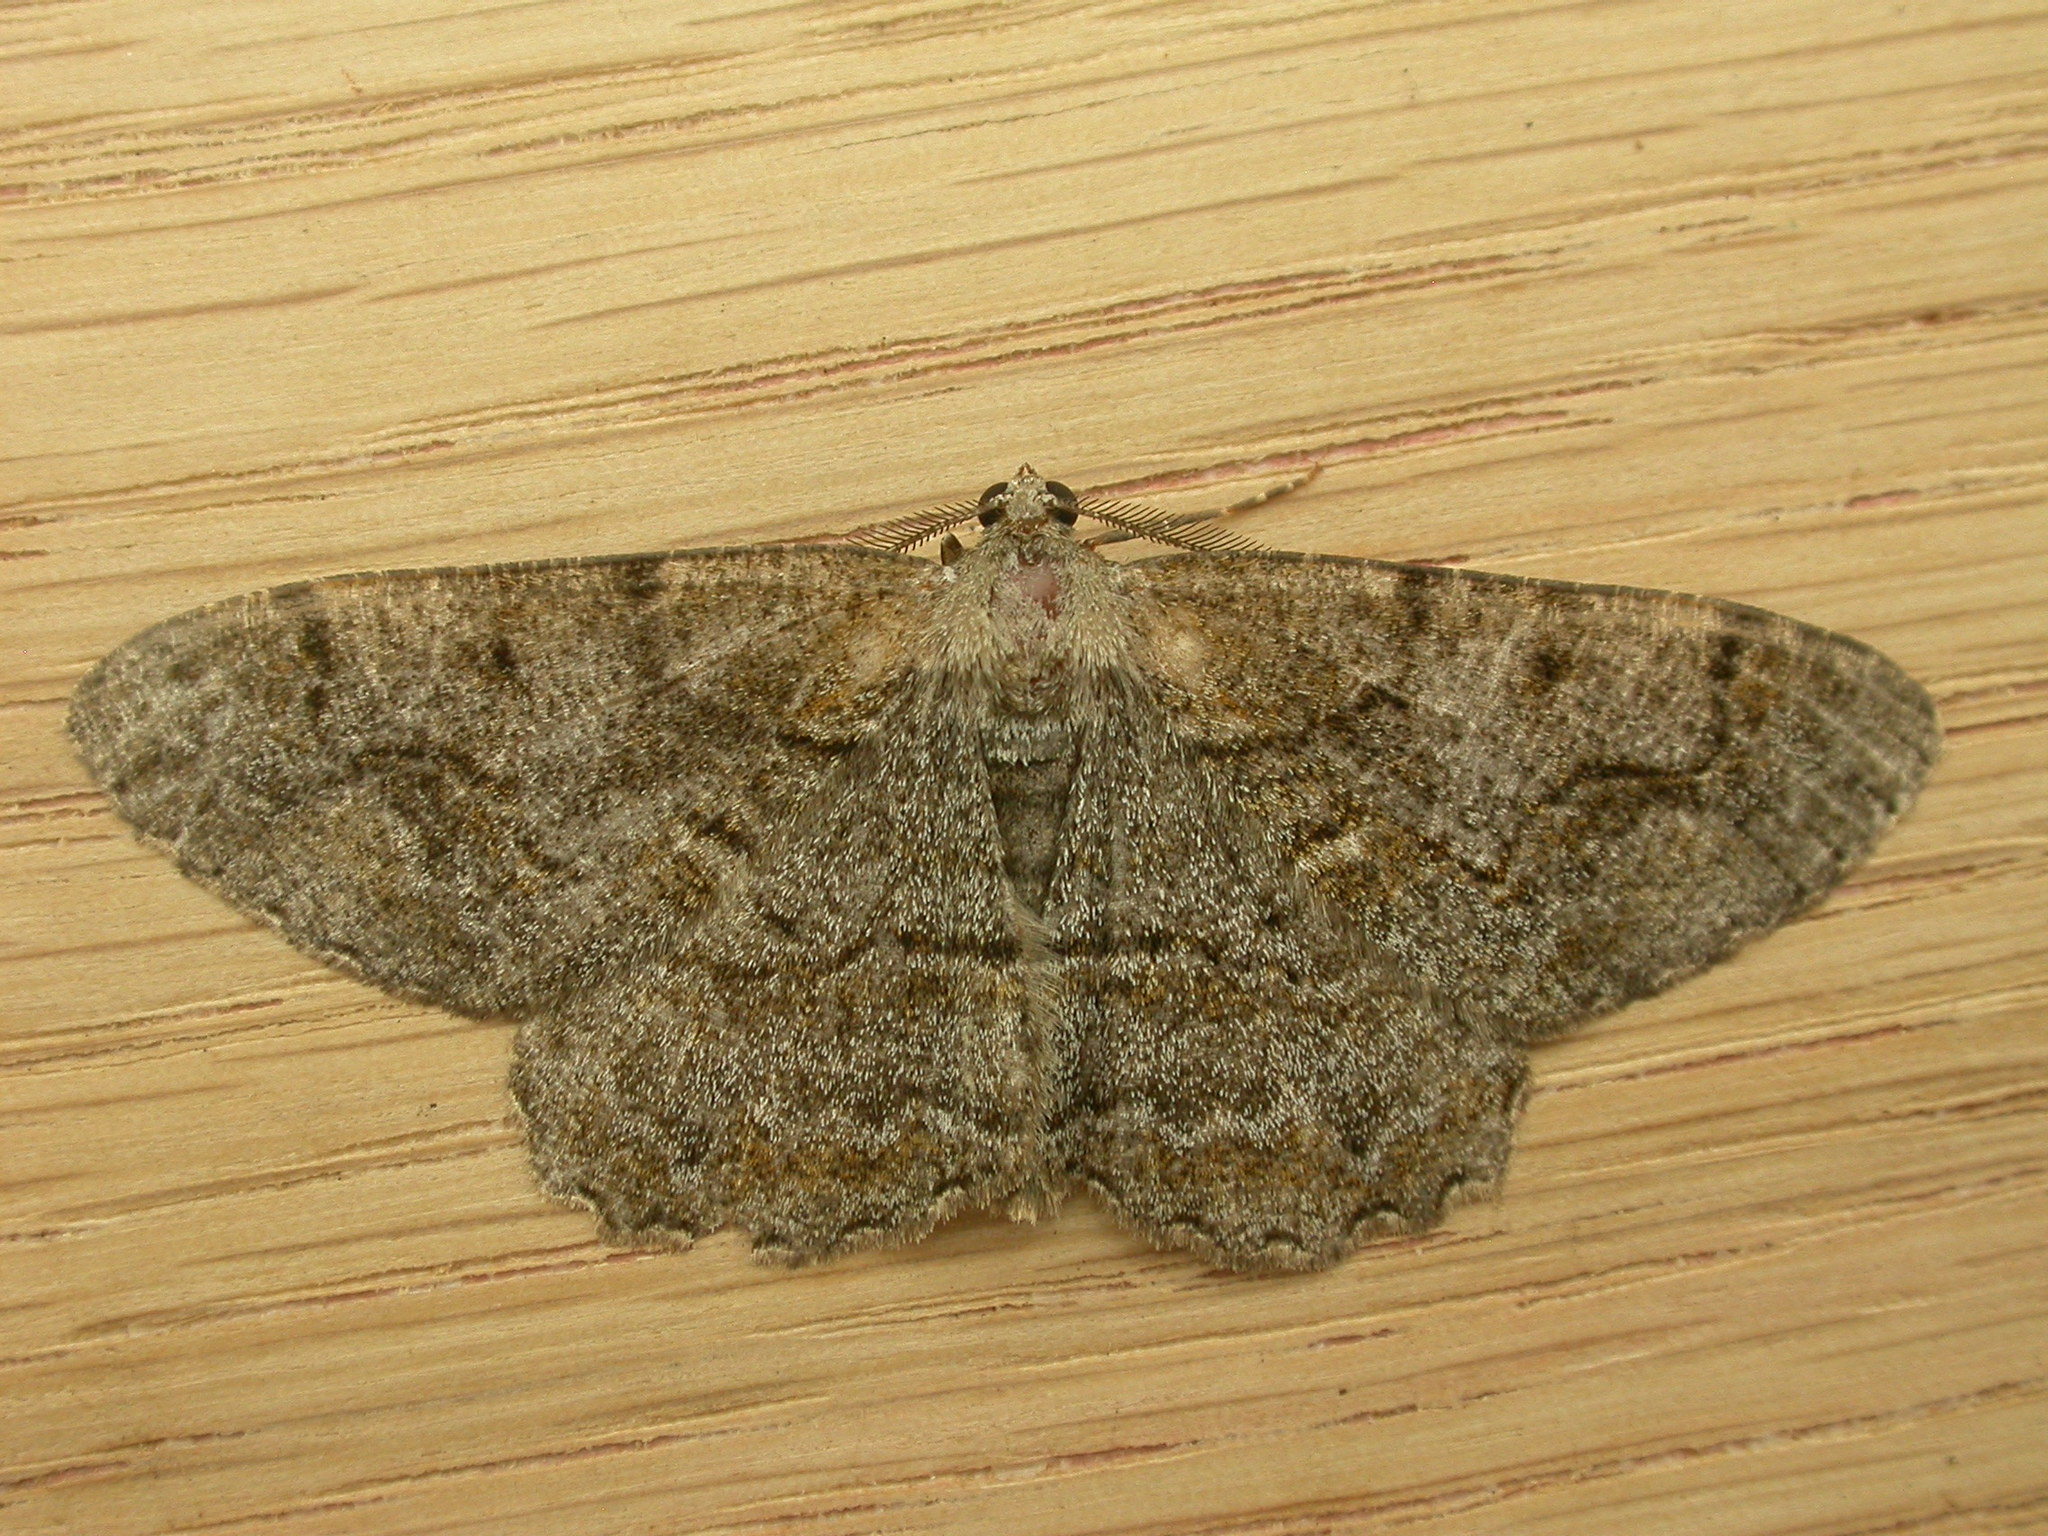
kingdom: Animalia
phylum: Arthropoda
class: Insecta
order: Lepidoptera
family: Geometridae
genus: Alcis
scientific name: Alcis repandata
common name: Mottled beauty
